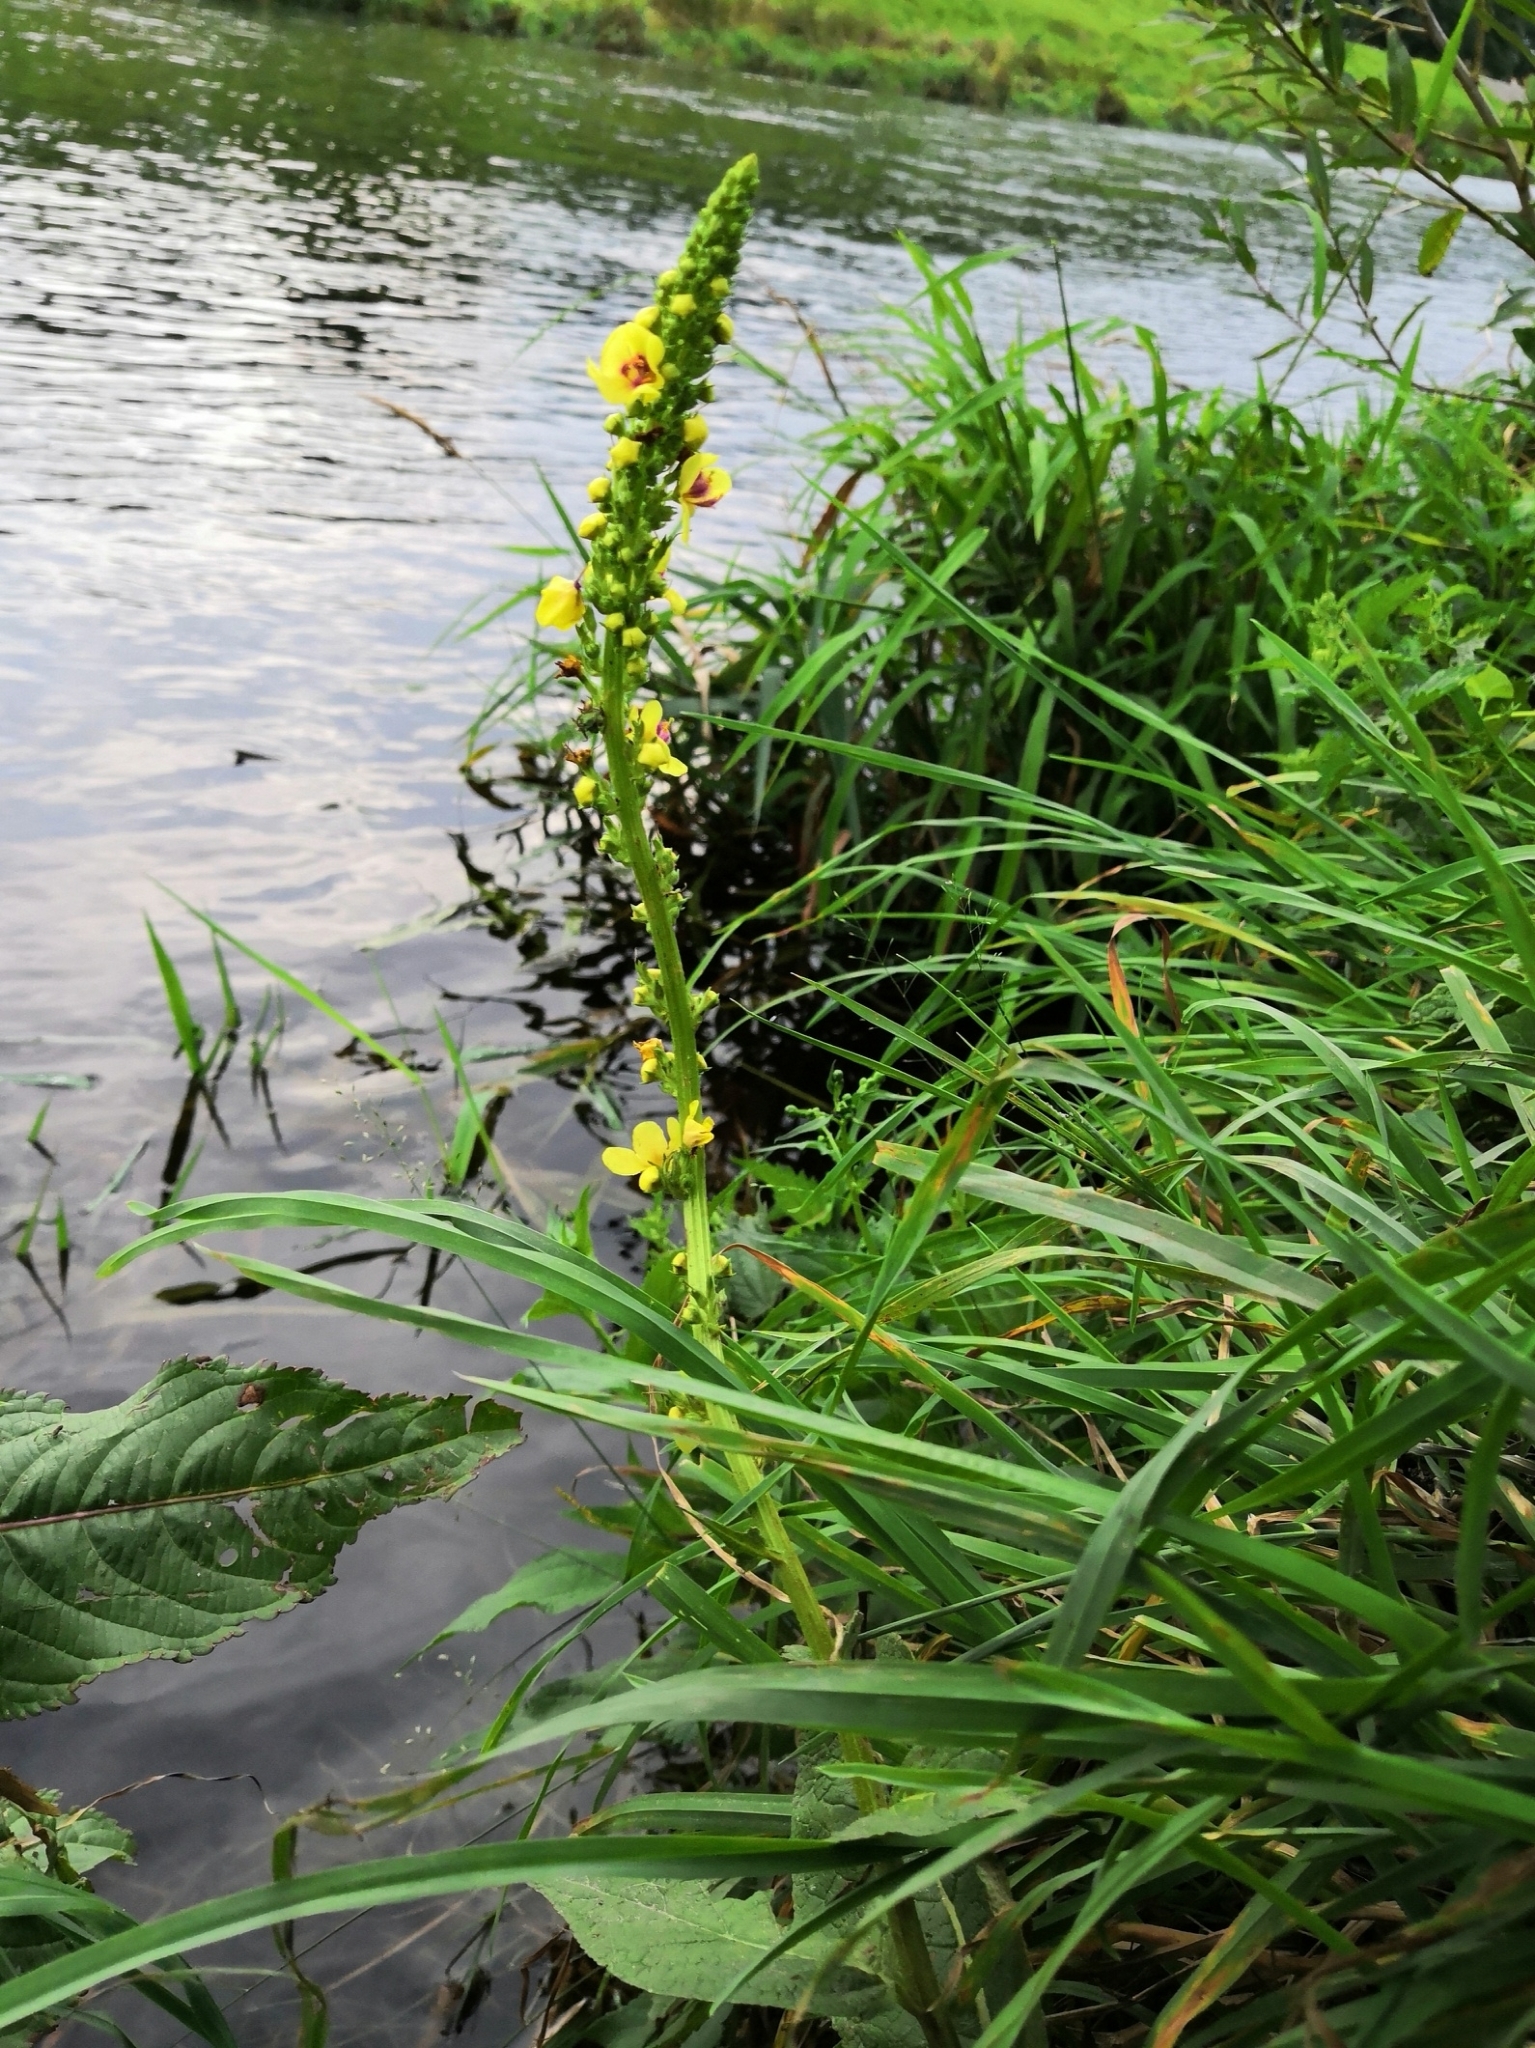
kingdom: Plantae
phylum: Tracheophyta
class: Magnoliopsida
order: Lamiales
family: Scrophulariaceae
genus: Verbascum
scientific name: Verbascum nigrum
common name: Dark mullein
